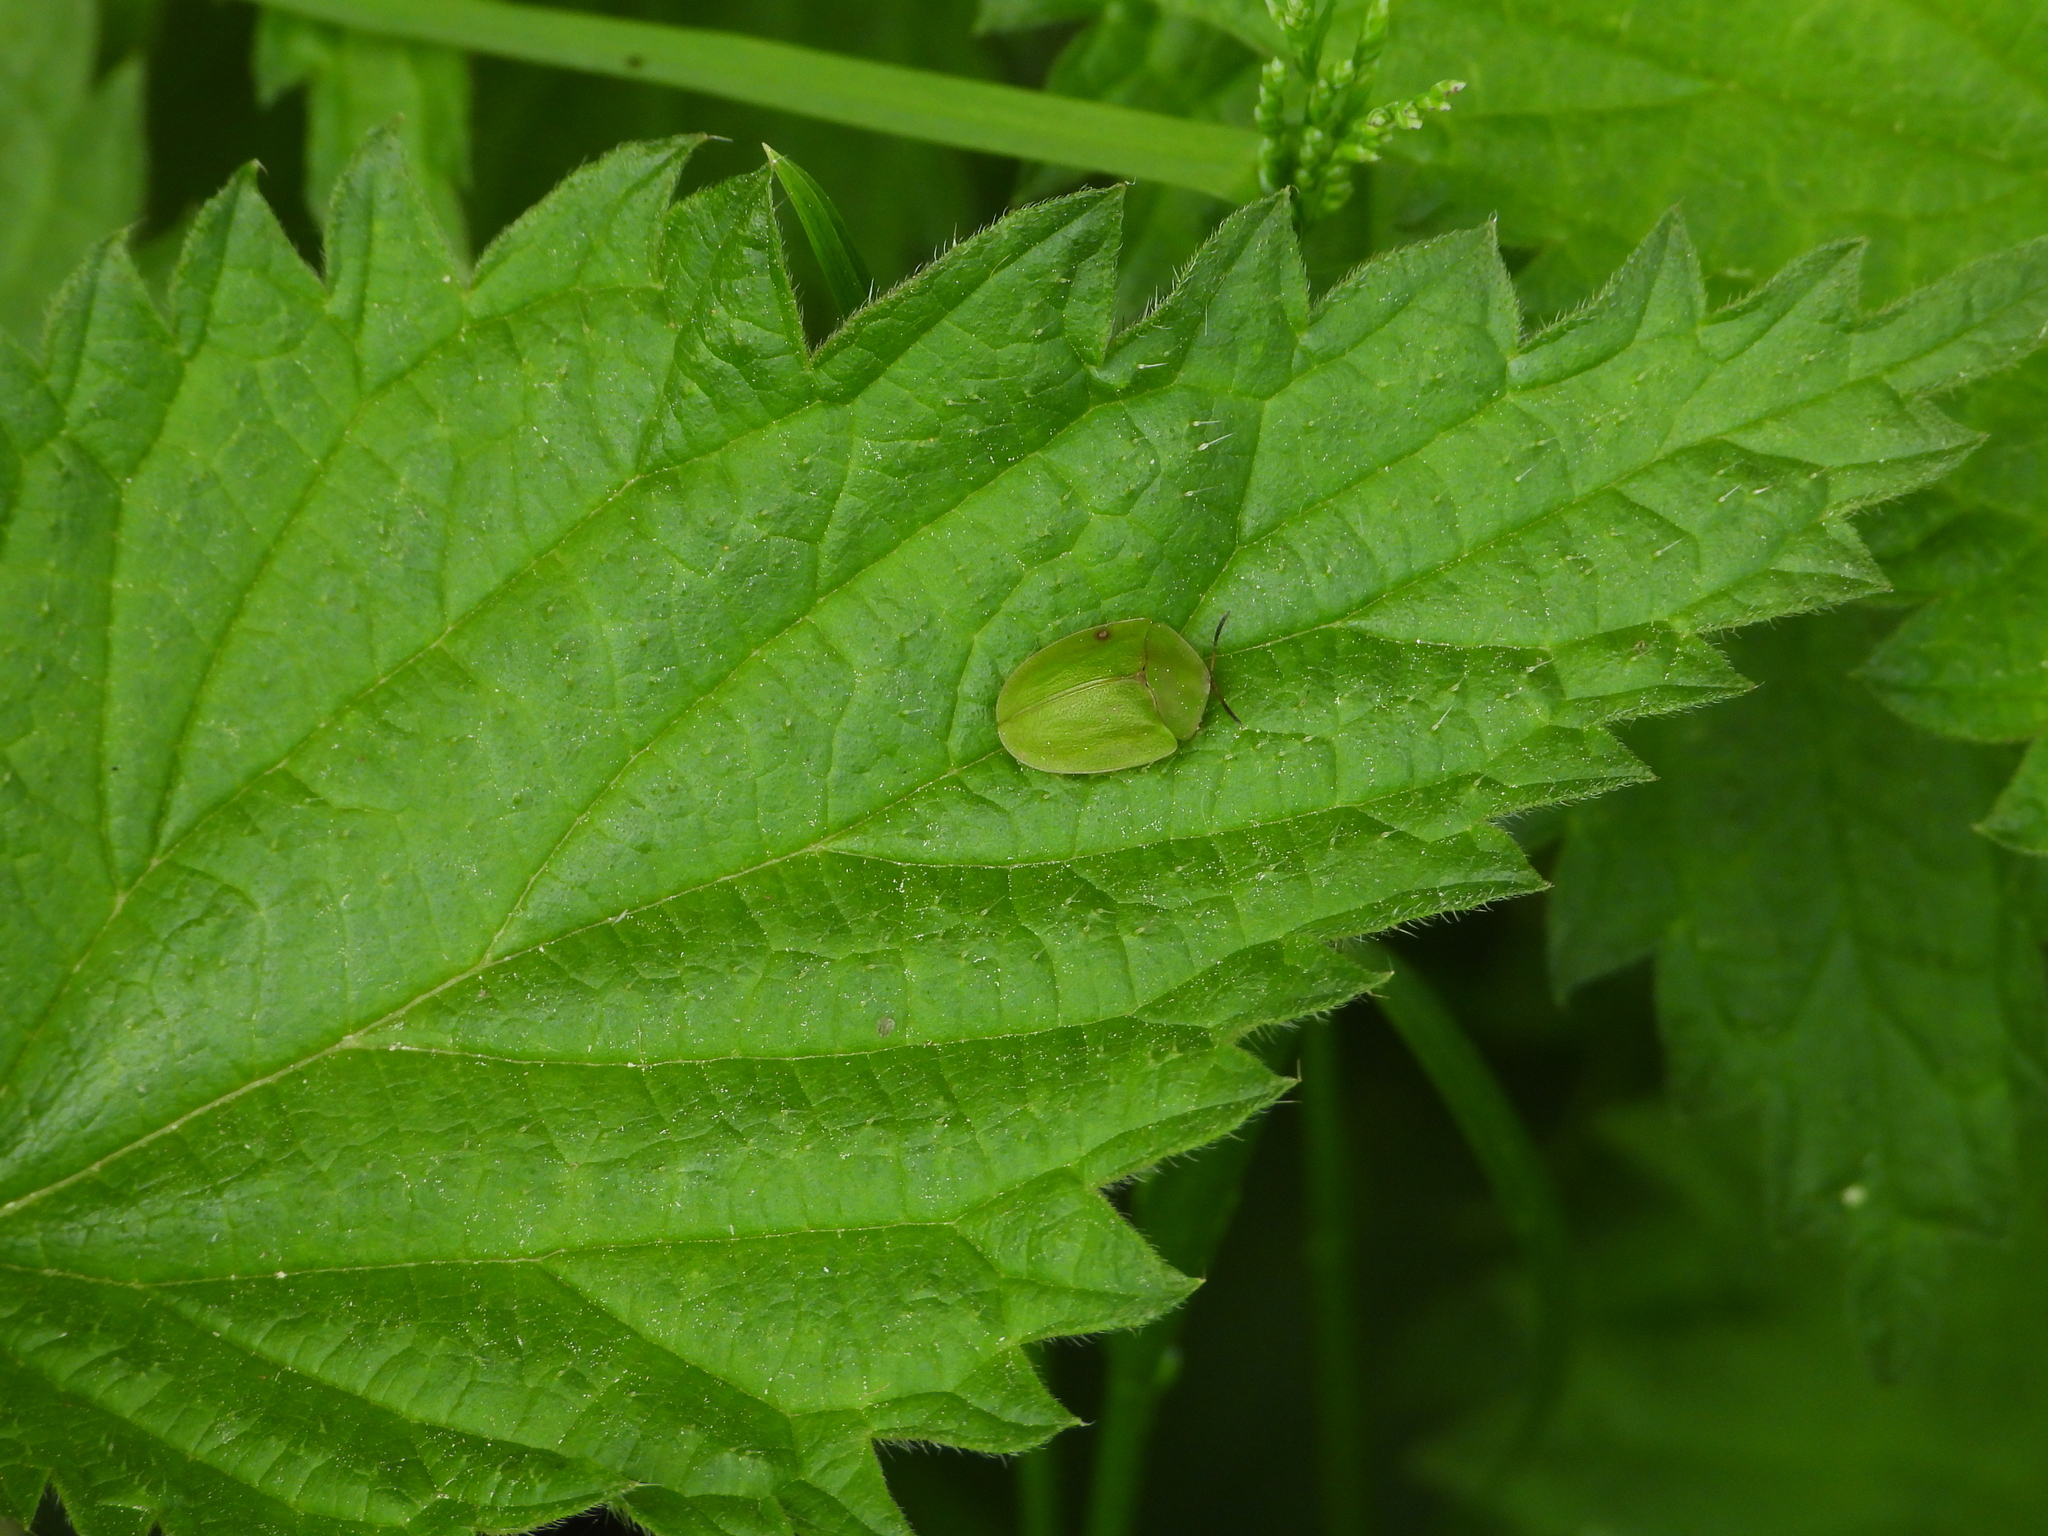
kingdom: Animalia
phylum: Arthropoda
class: Insecta
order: Coleoptera
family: Chrysomelidae
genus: Cassida
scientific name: Cassida viridis
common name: Green tortoise beetle
